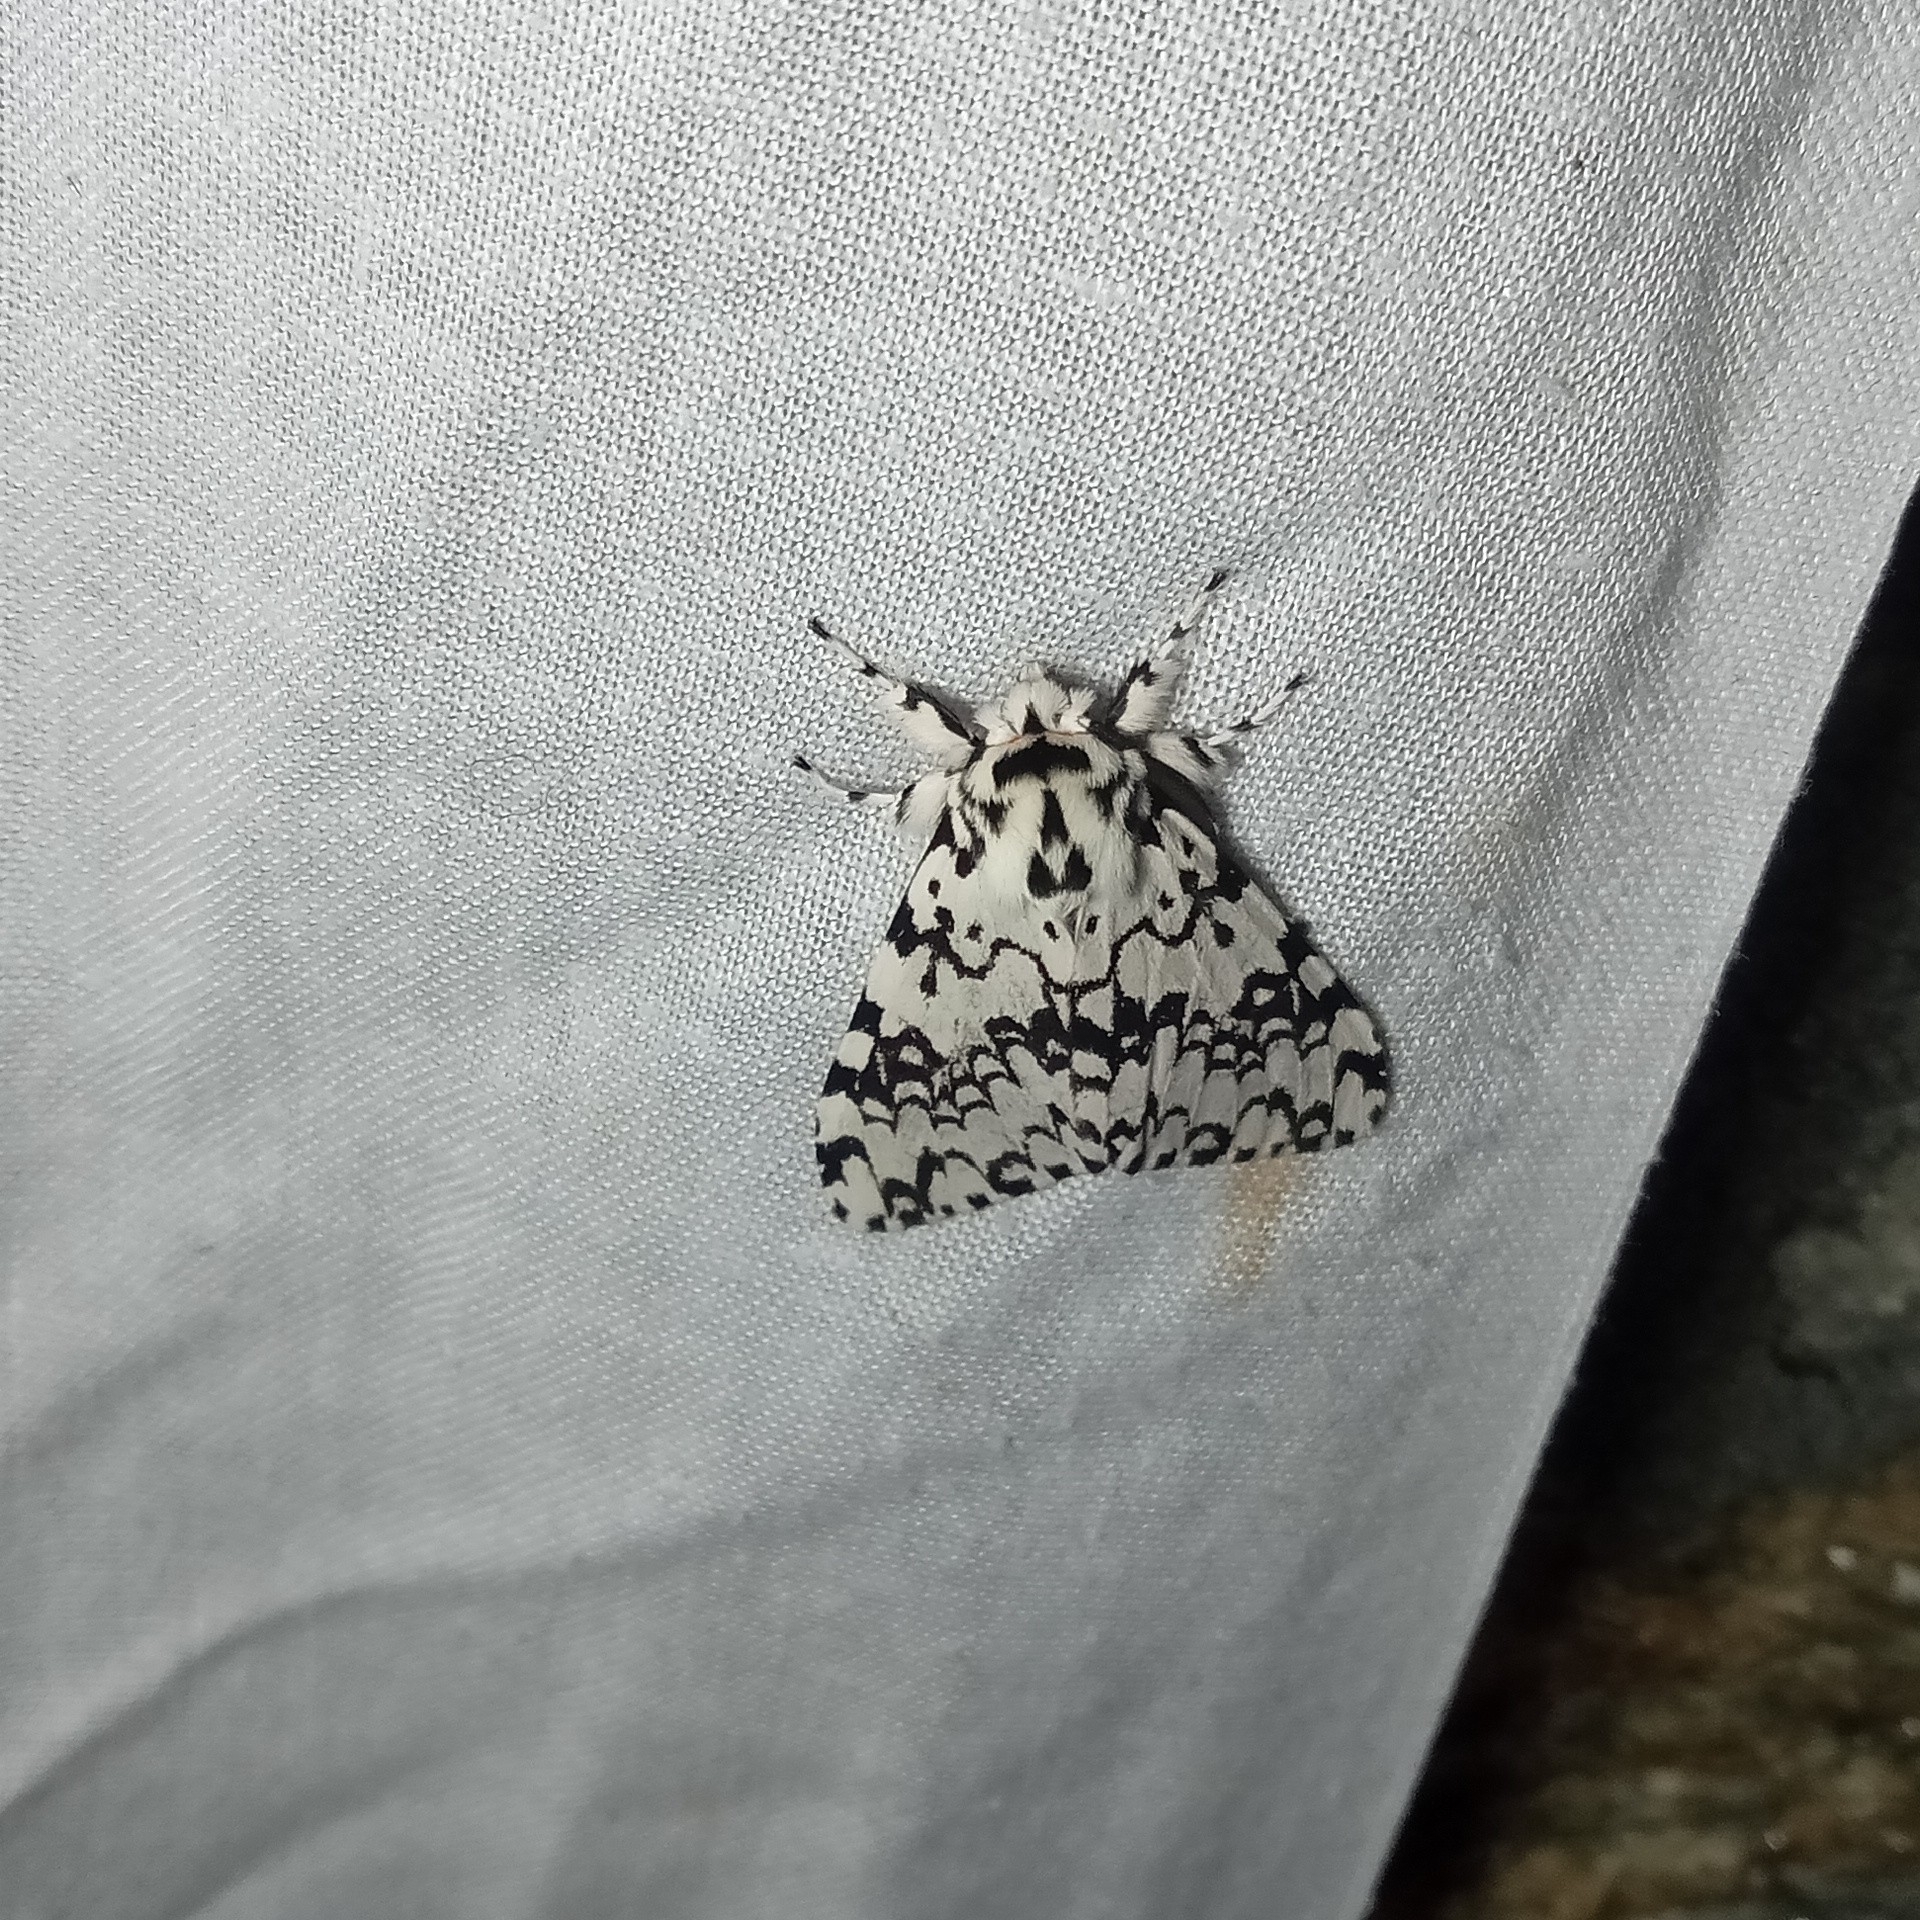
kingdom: Animalia
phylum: Arthropoda
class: Insecta
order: Lepidoptera
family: Erebidae
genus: Lymantria
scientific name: Lymantria concolor
